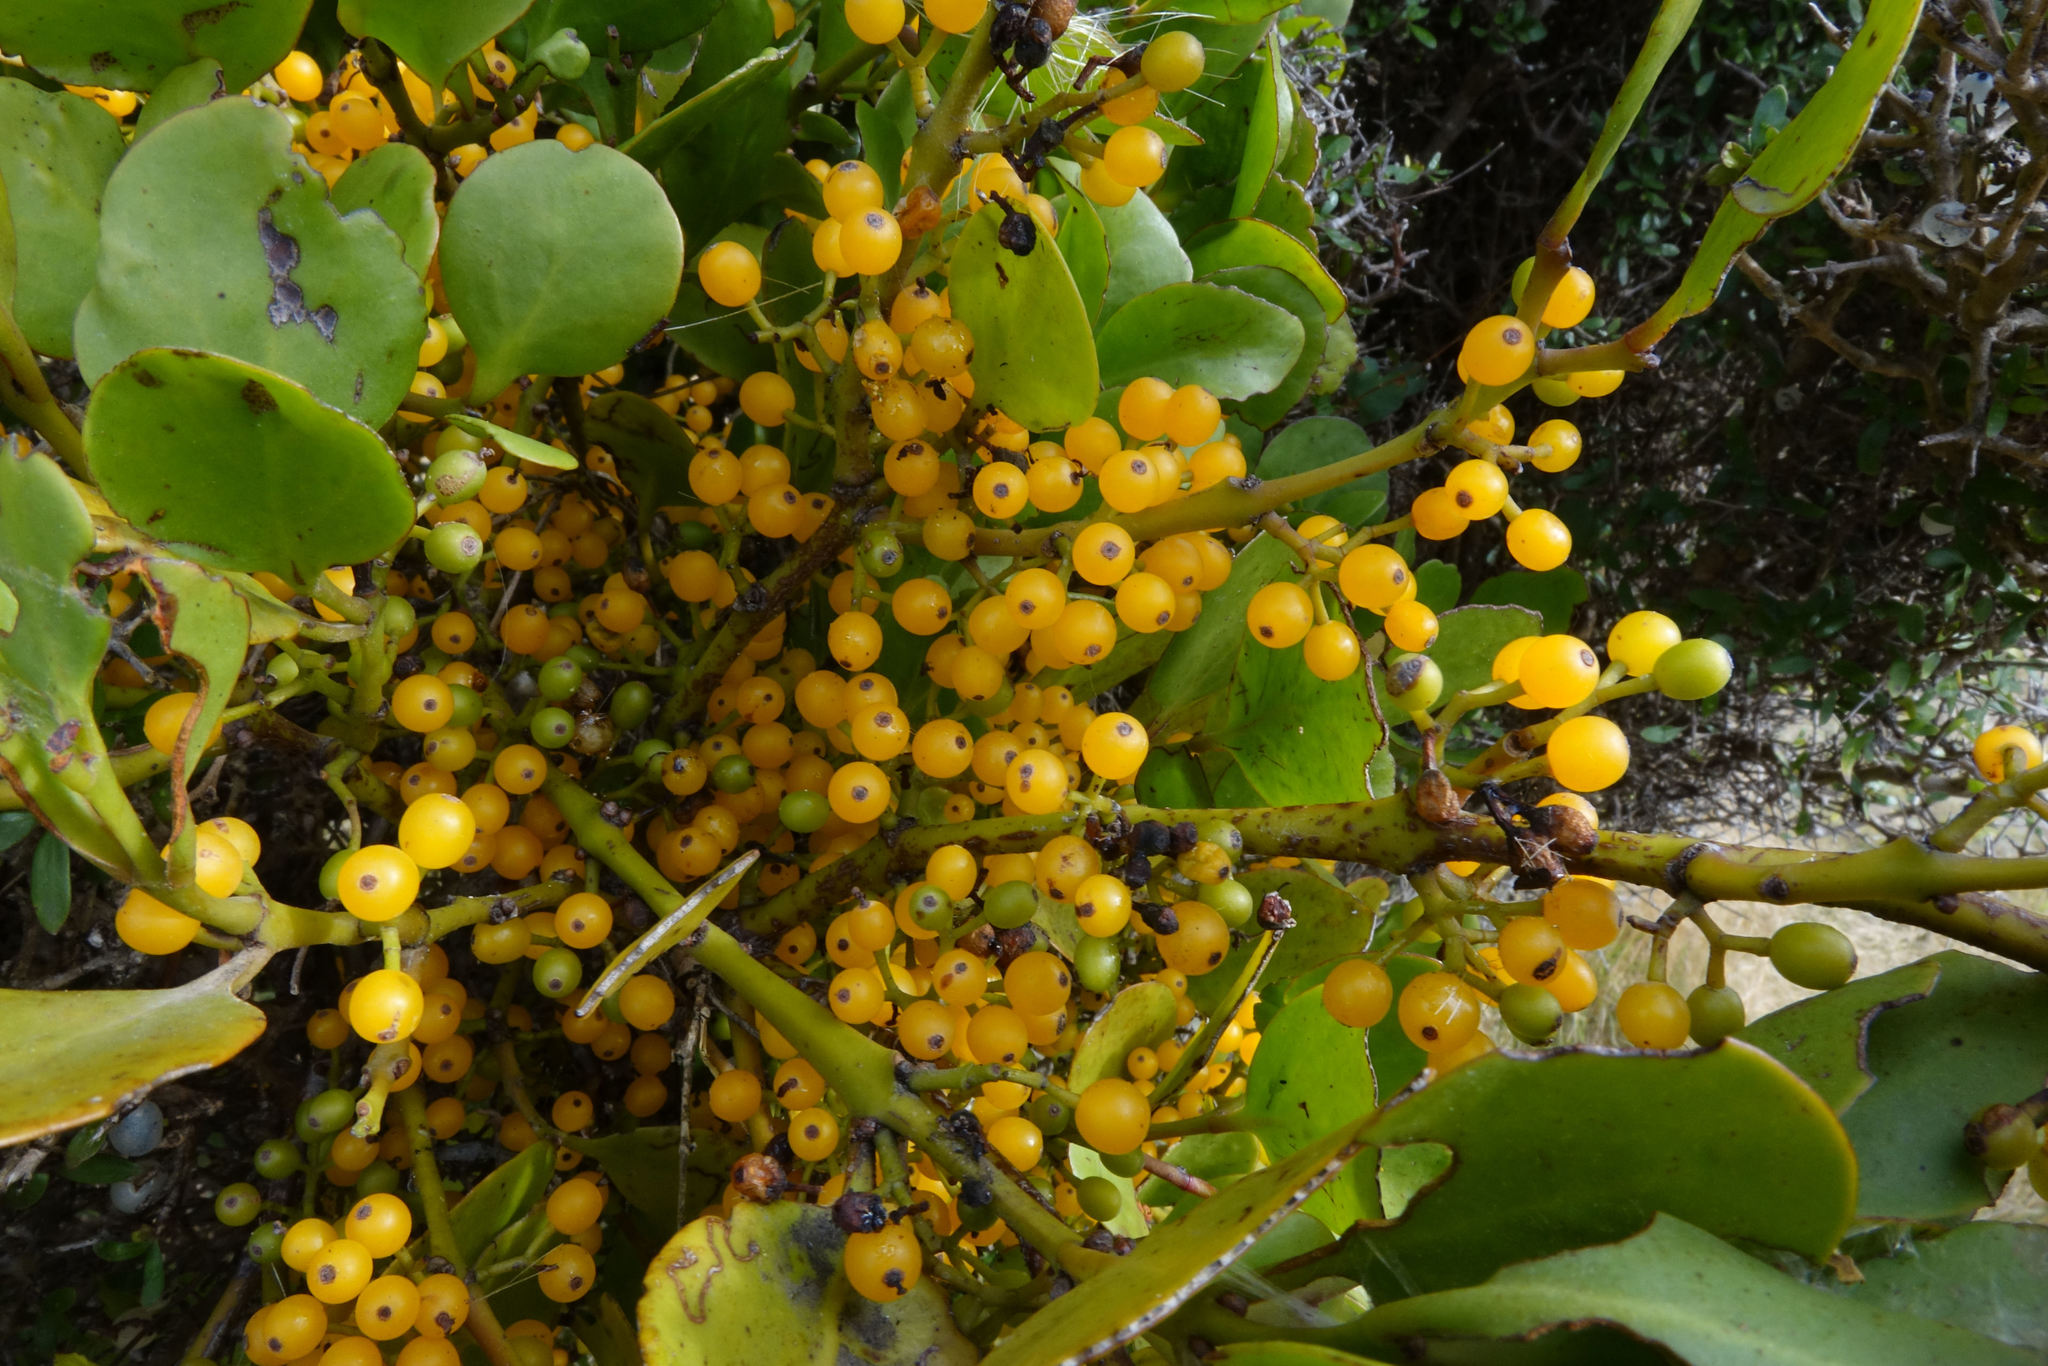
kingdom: Plantae
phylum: Tracheophyta
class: Magnoliopsida
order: Santalales
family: Loranthaceae
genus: Ileostylus
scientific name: Ileostylus micranthus
